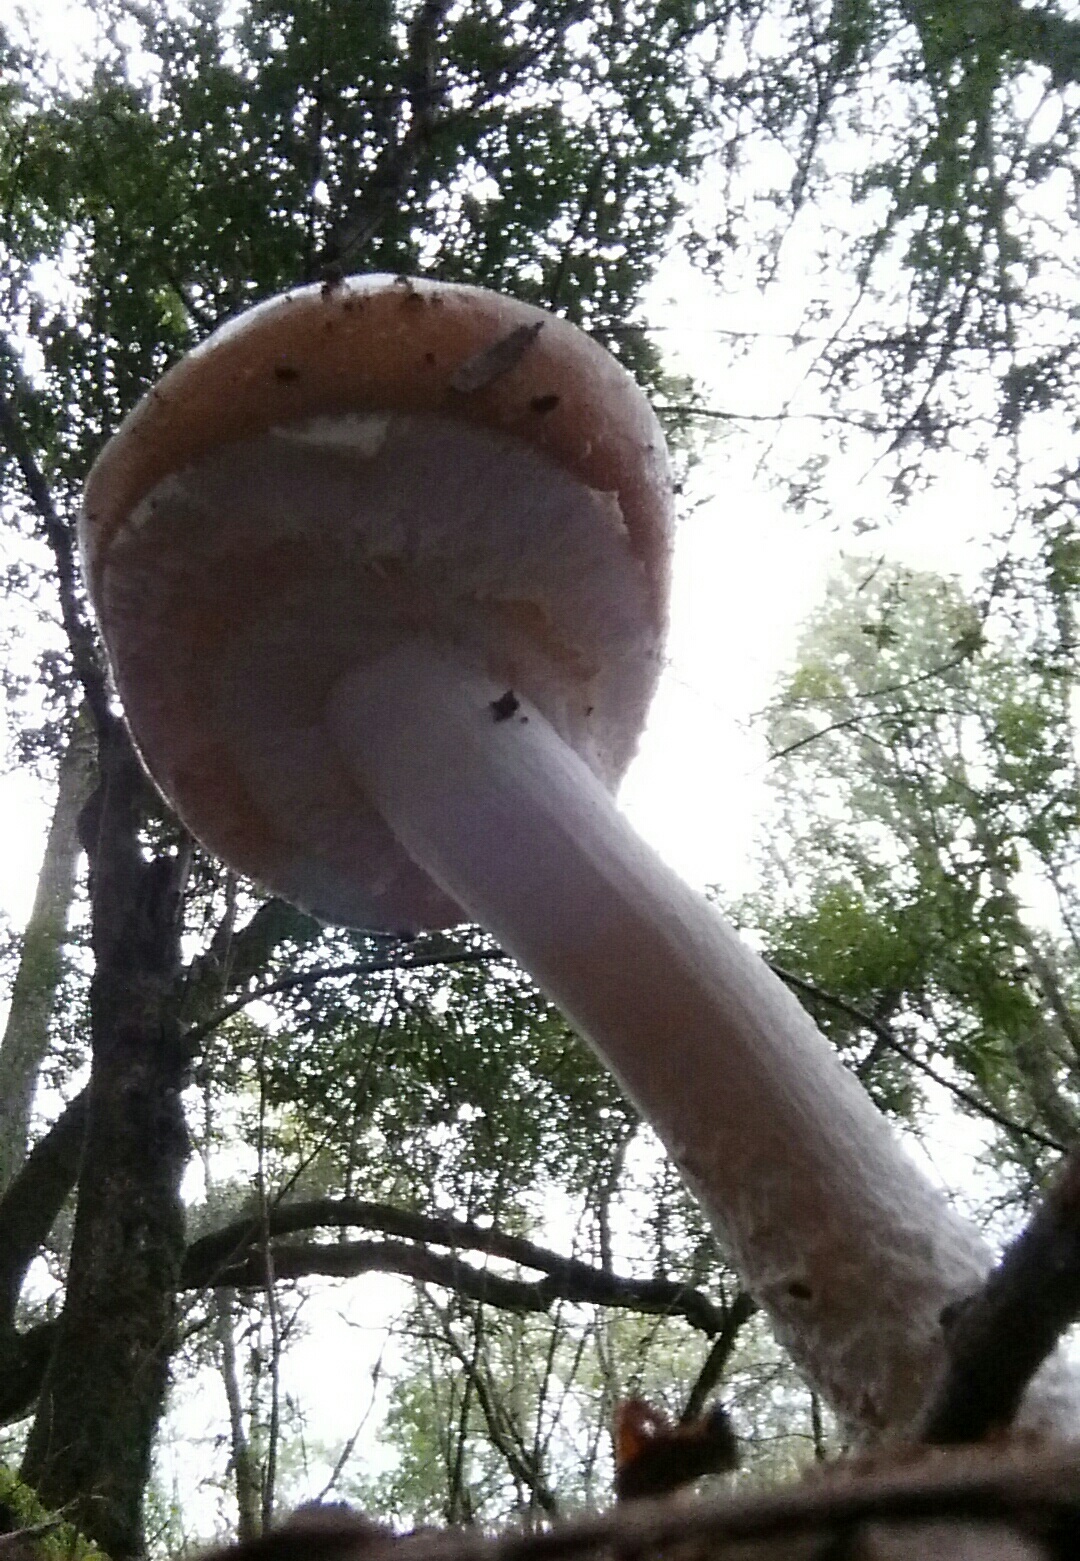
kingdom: Fungi
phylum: Basidiomycota
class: Agaricomycetes
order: Agaricales
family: Strophariaceae
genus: Stropharia
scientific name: Stropharia ambigua
